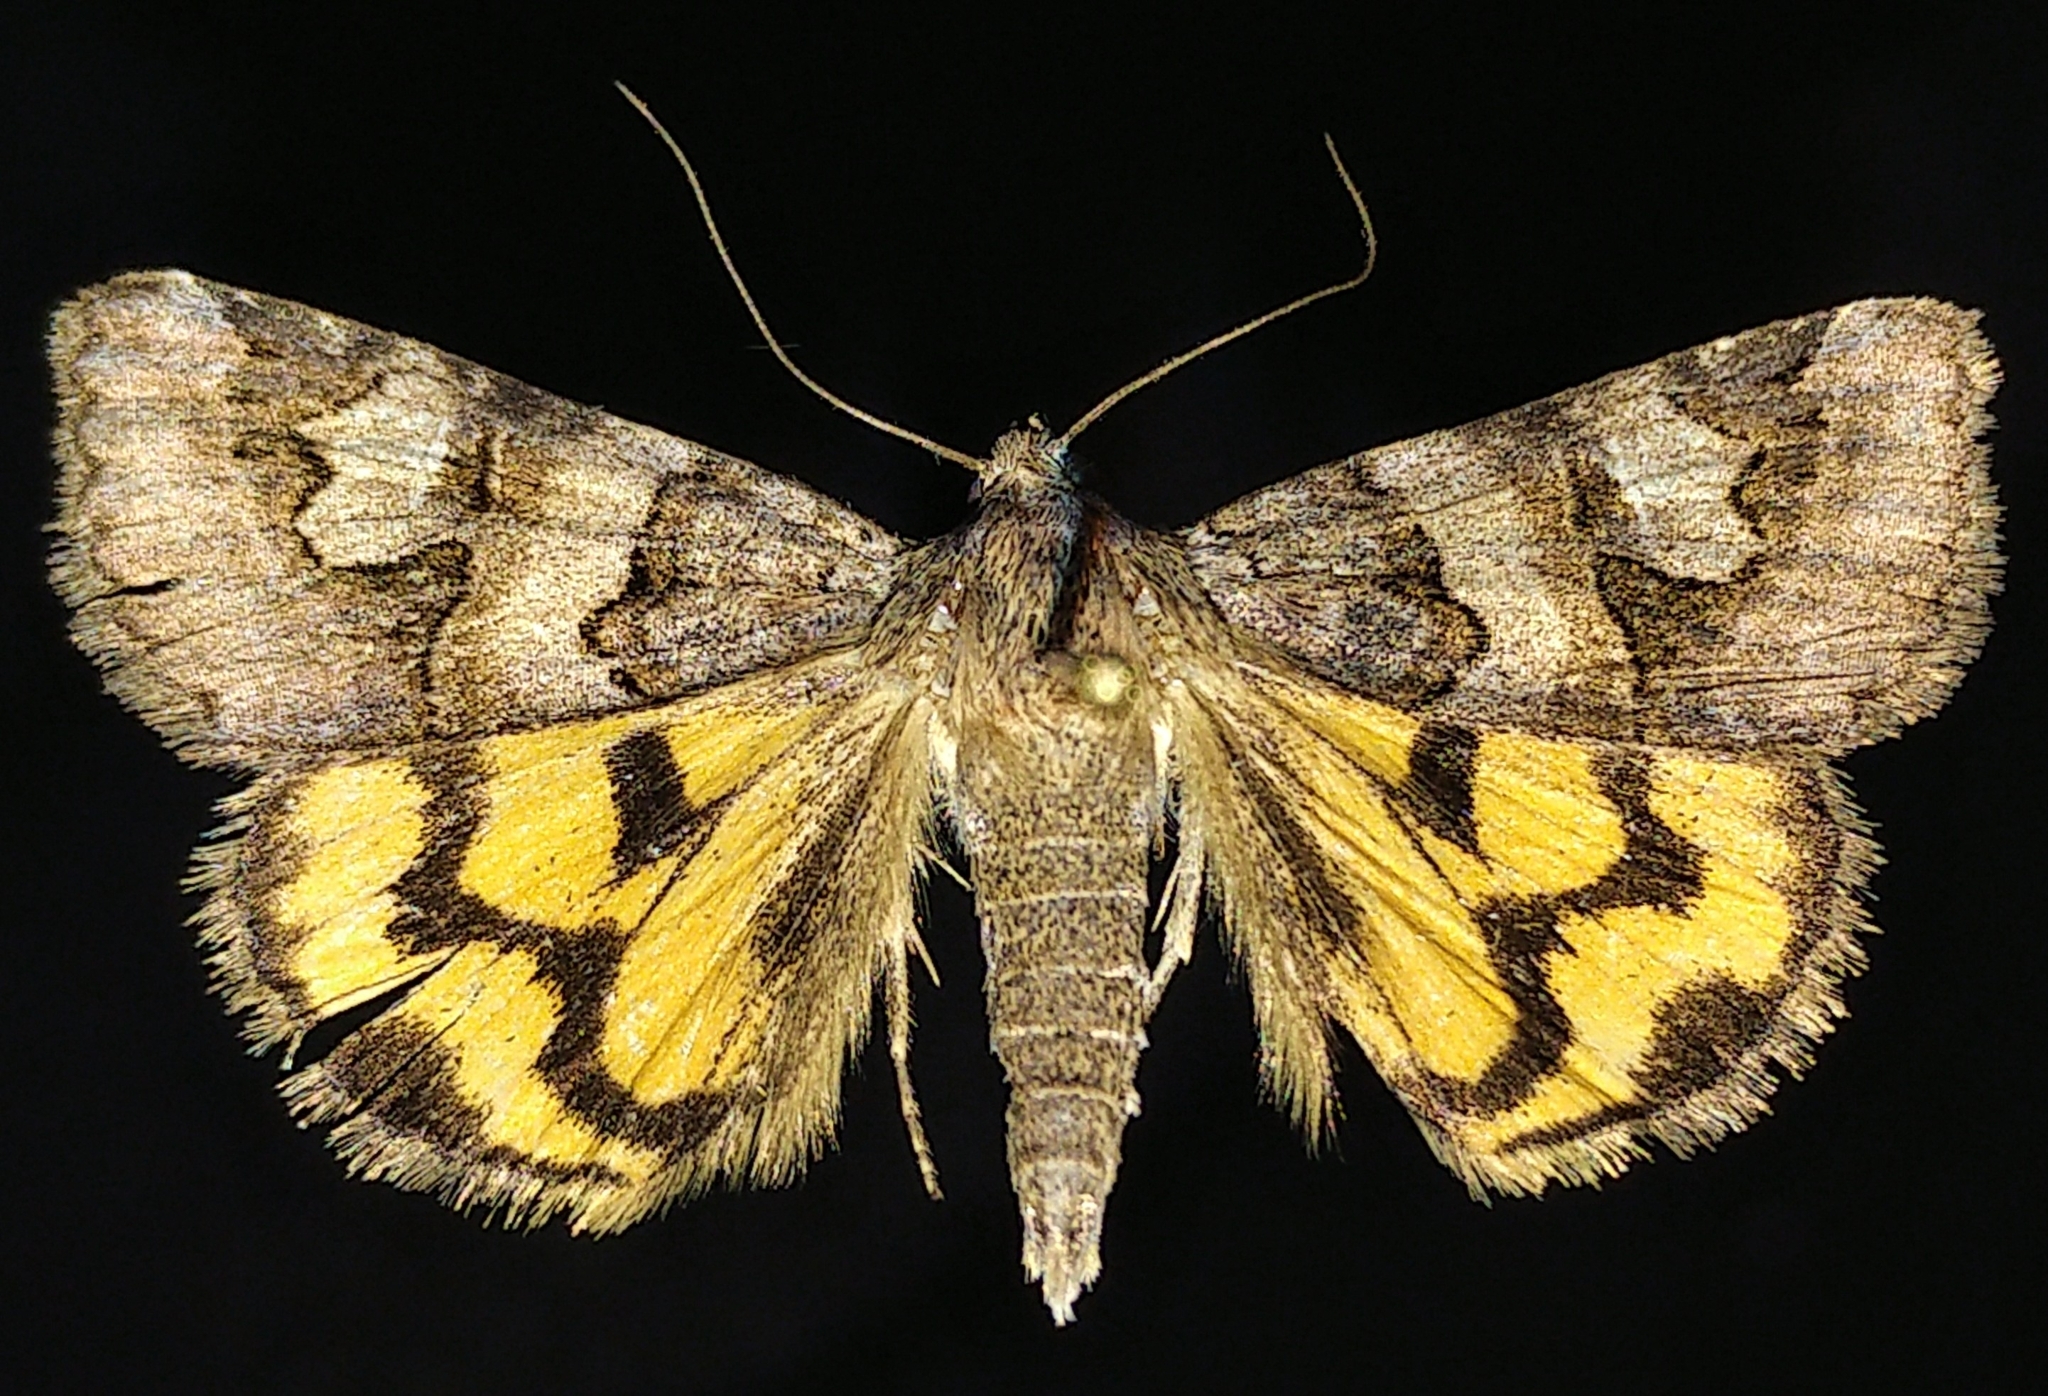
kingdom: Animalia
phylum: Arthropoda
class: Insecta
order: Lepidoptera
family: Erebidae
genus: Drasteria
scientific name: Drasteria adumbrata
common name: Shadowy arches
